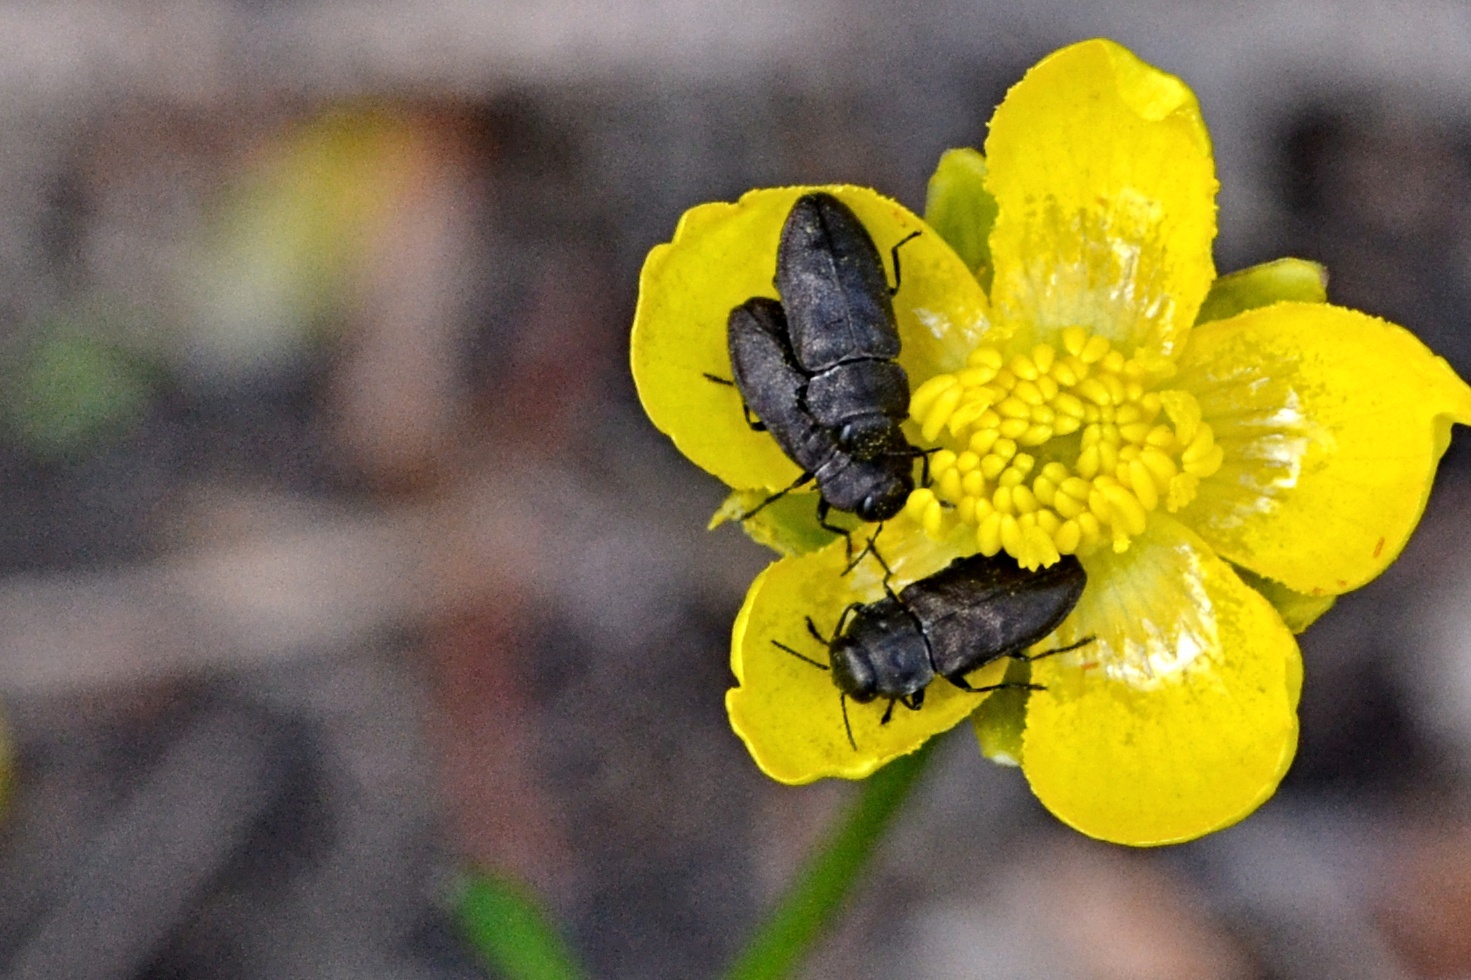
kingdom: Animalia
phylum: Arthropoda
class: Insecta
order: Coleoptera
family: Buprestidae
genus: Anthaxia
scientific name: Anthaxia quadripunctata
